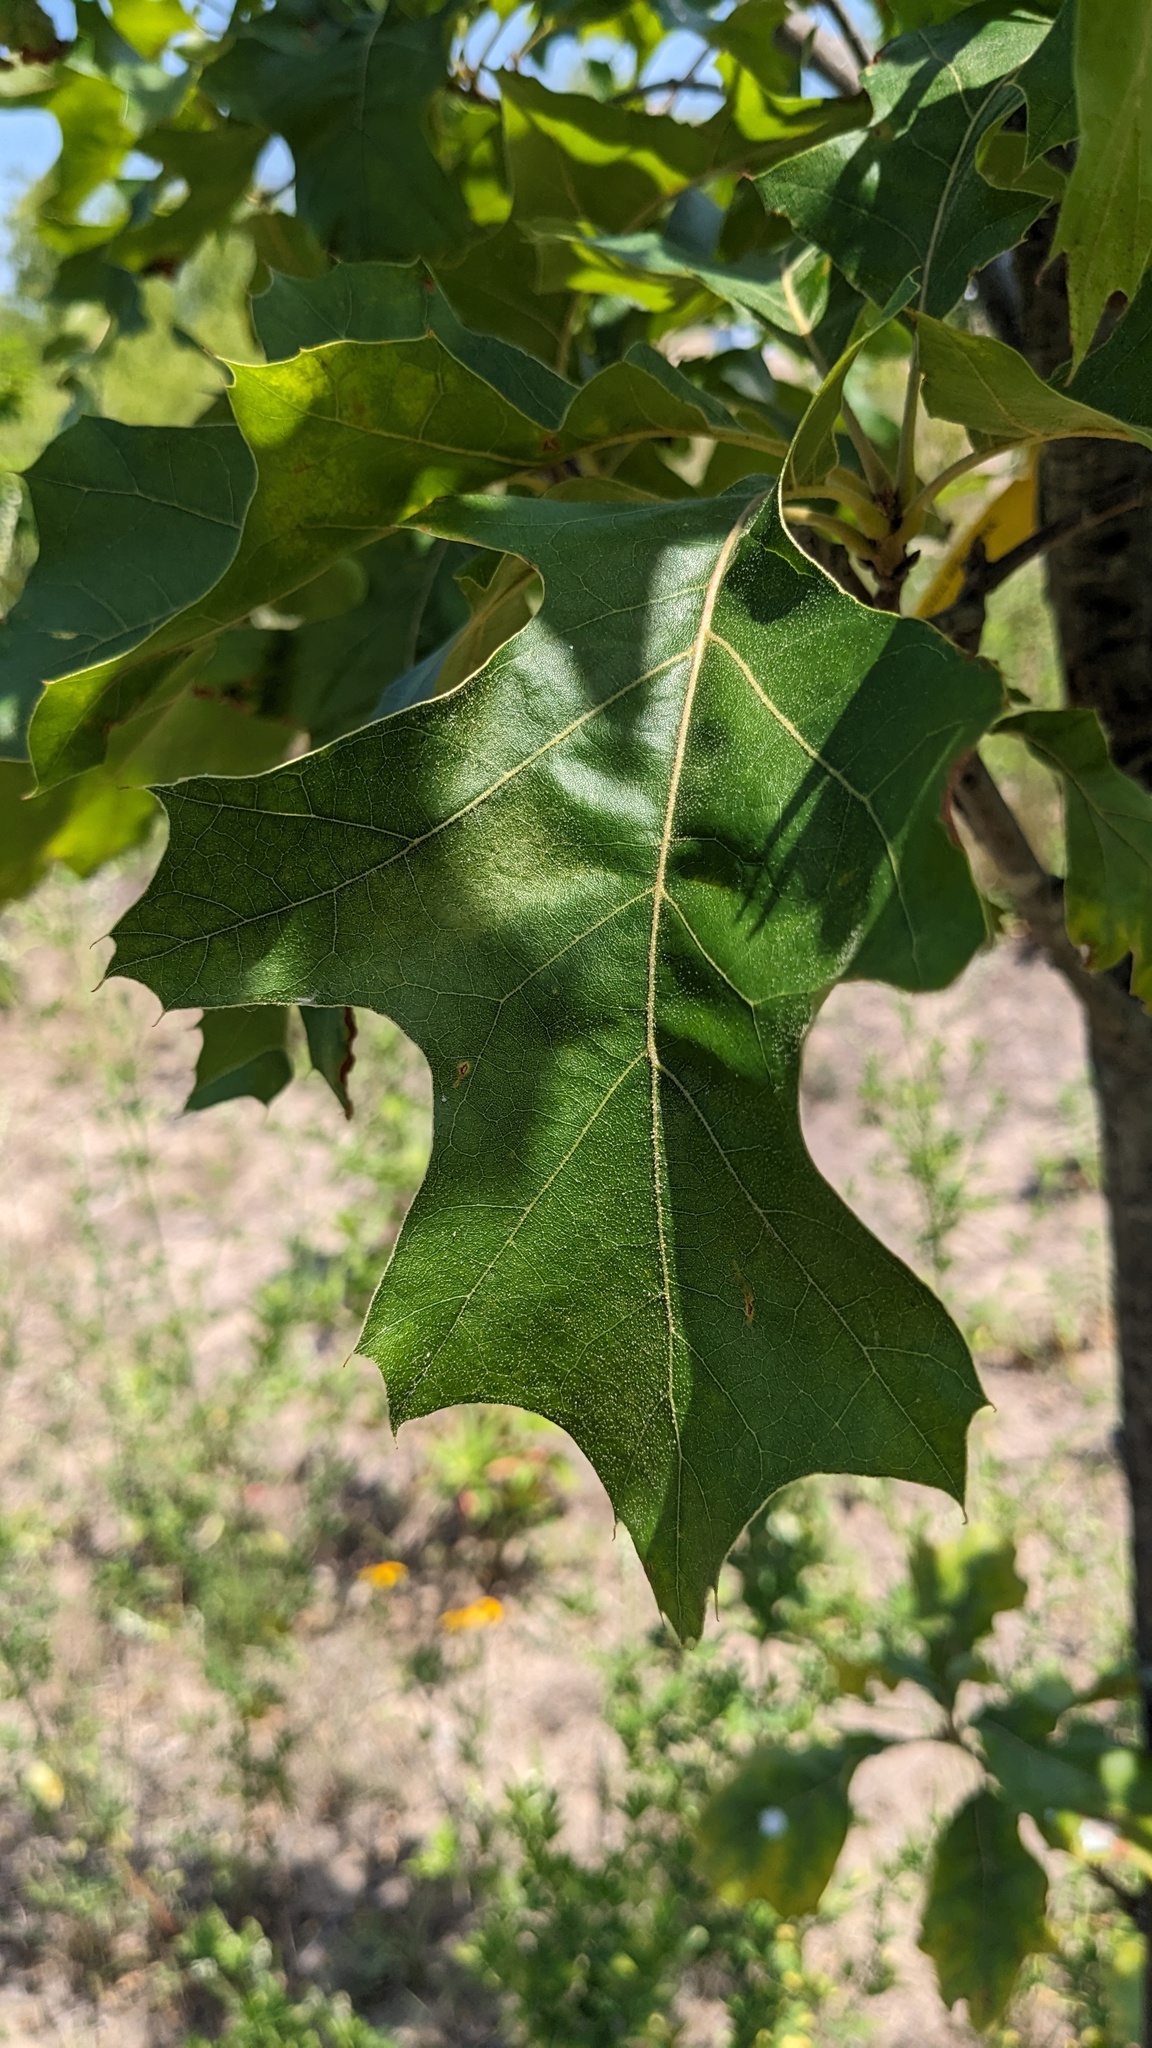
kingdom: Plantae
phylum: Tracheophyta
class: Magnoliopsida
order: Fagales
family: Fagaceae
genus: Quercus
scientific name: Quercus velutina
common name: Black oak
